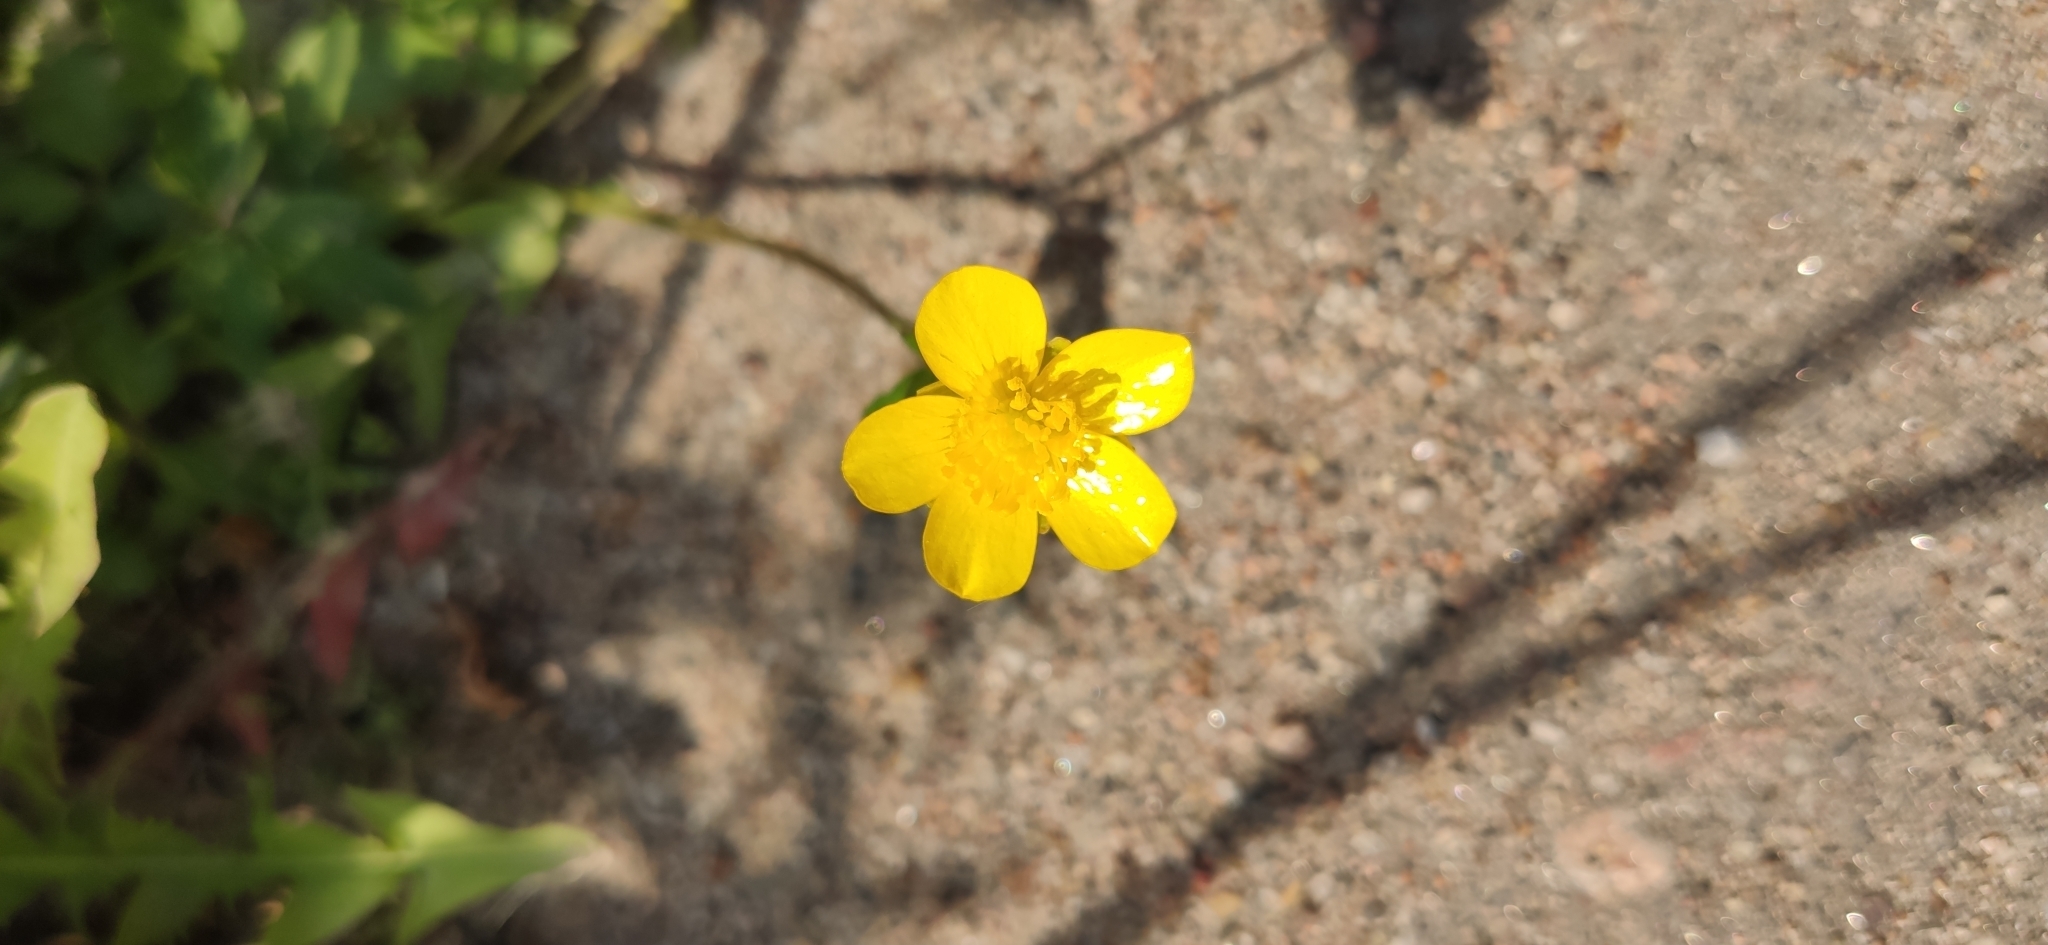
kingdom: Plantae
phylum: Tracheophyta
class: Magnoliopsida
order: Ranunculales
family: Ranunculaceae
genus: Ranunculus
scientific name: Ranunculus repens
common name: Creeping buttercup
